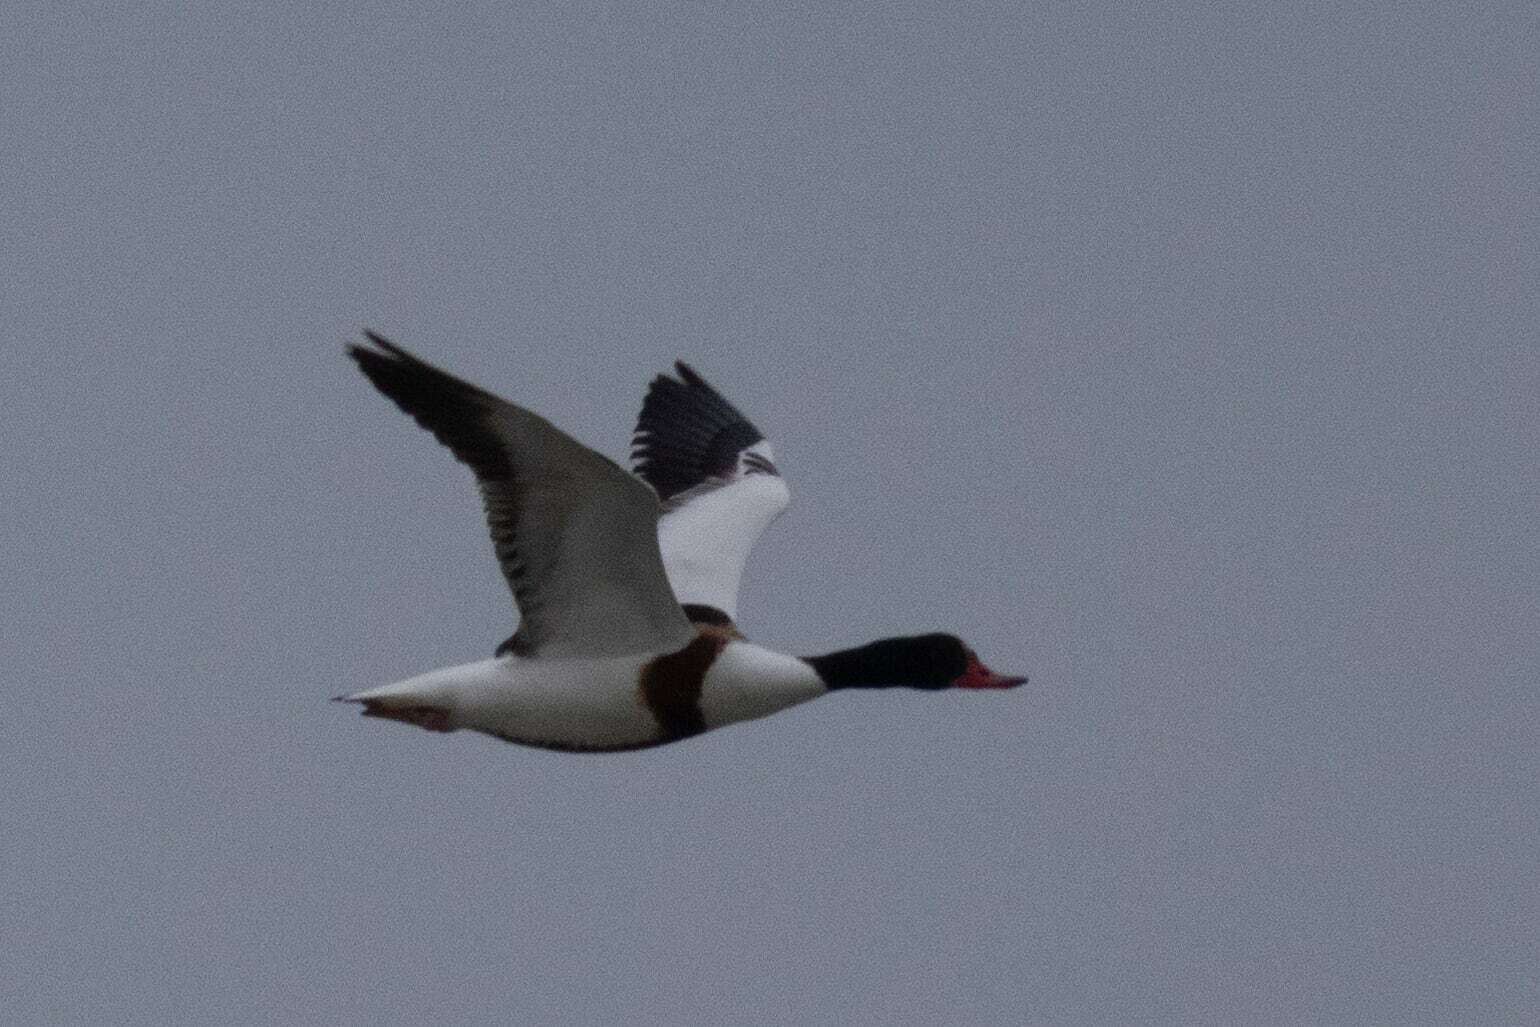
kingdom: Animalia
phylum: Chordata
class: Aves
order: Anseriformes
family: Anatidae
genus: Tadorna
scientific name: Tadorna tadorna
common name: Common shelduck
